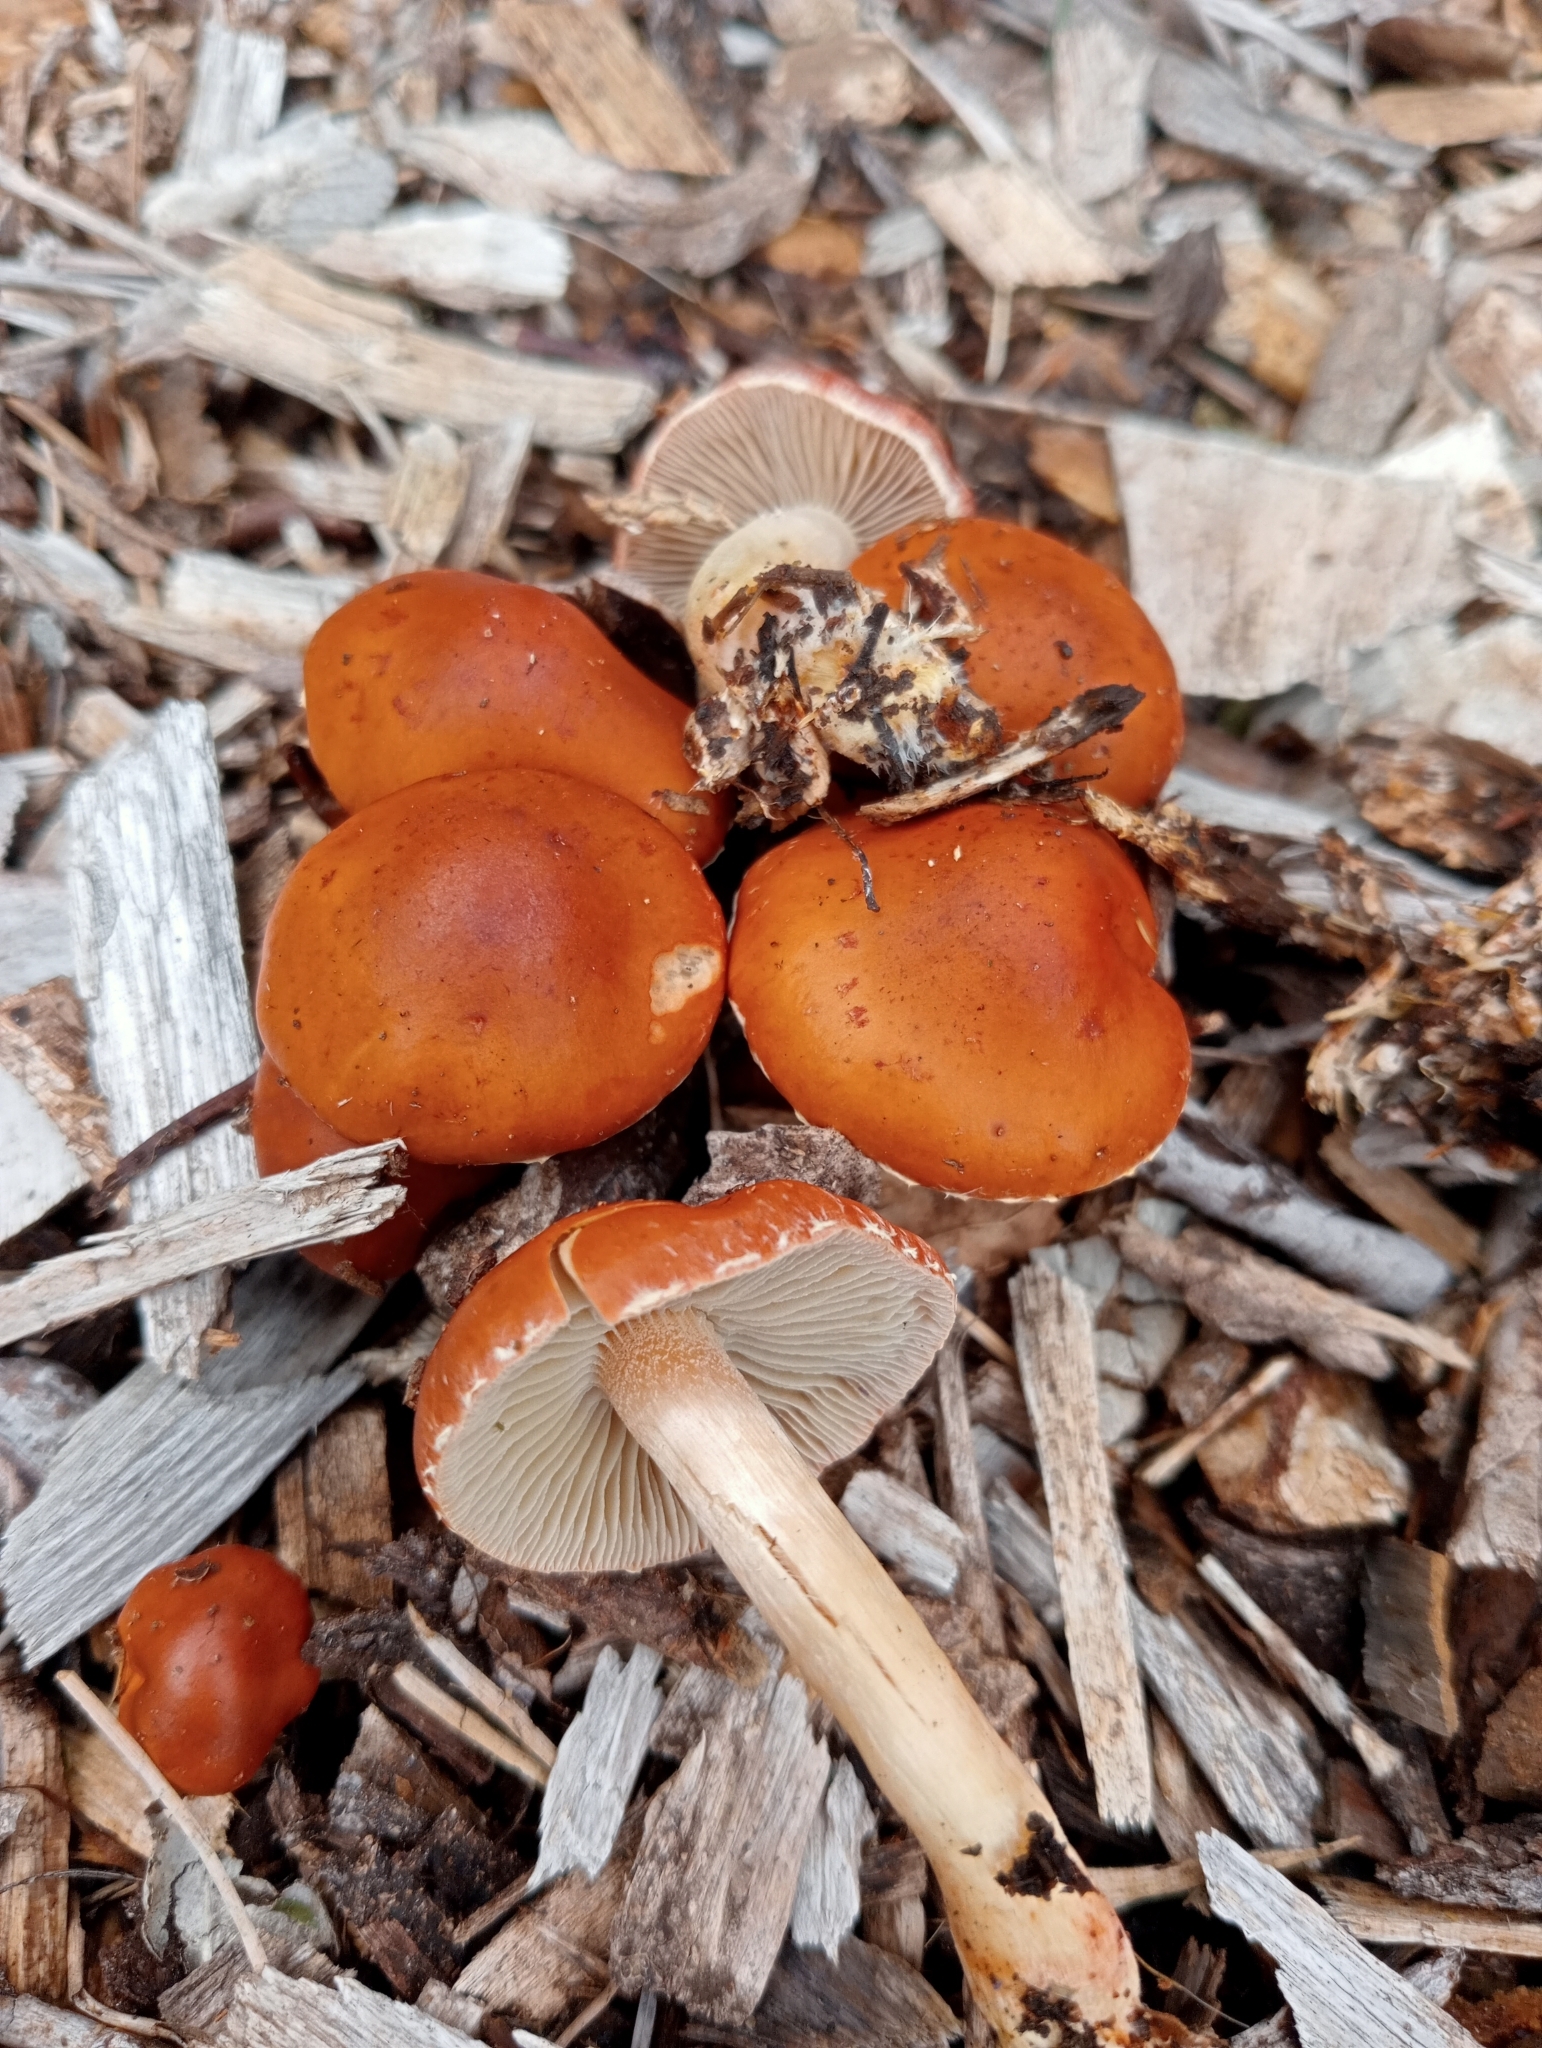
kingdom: Fungi
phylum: Basidiomycota
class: Agaricomycetes
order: Agaricales
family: Strophariaceae
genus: Leratiomyces
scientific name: Leratiomyces ceres
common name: Redlead roundhead
